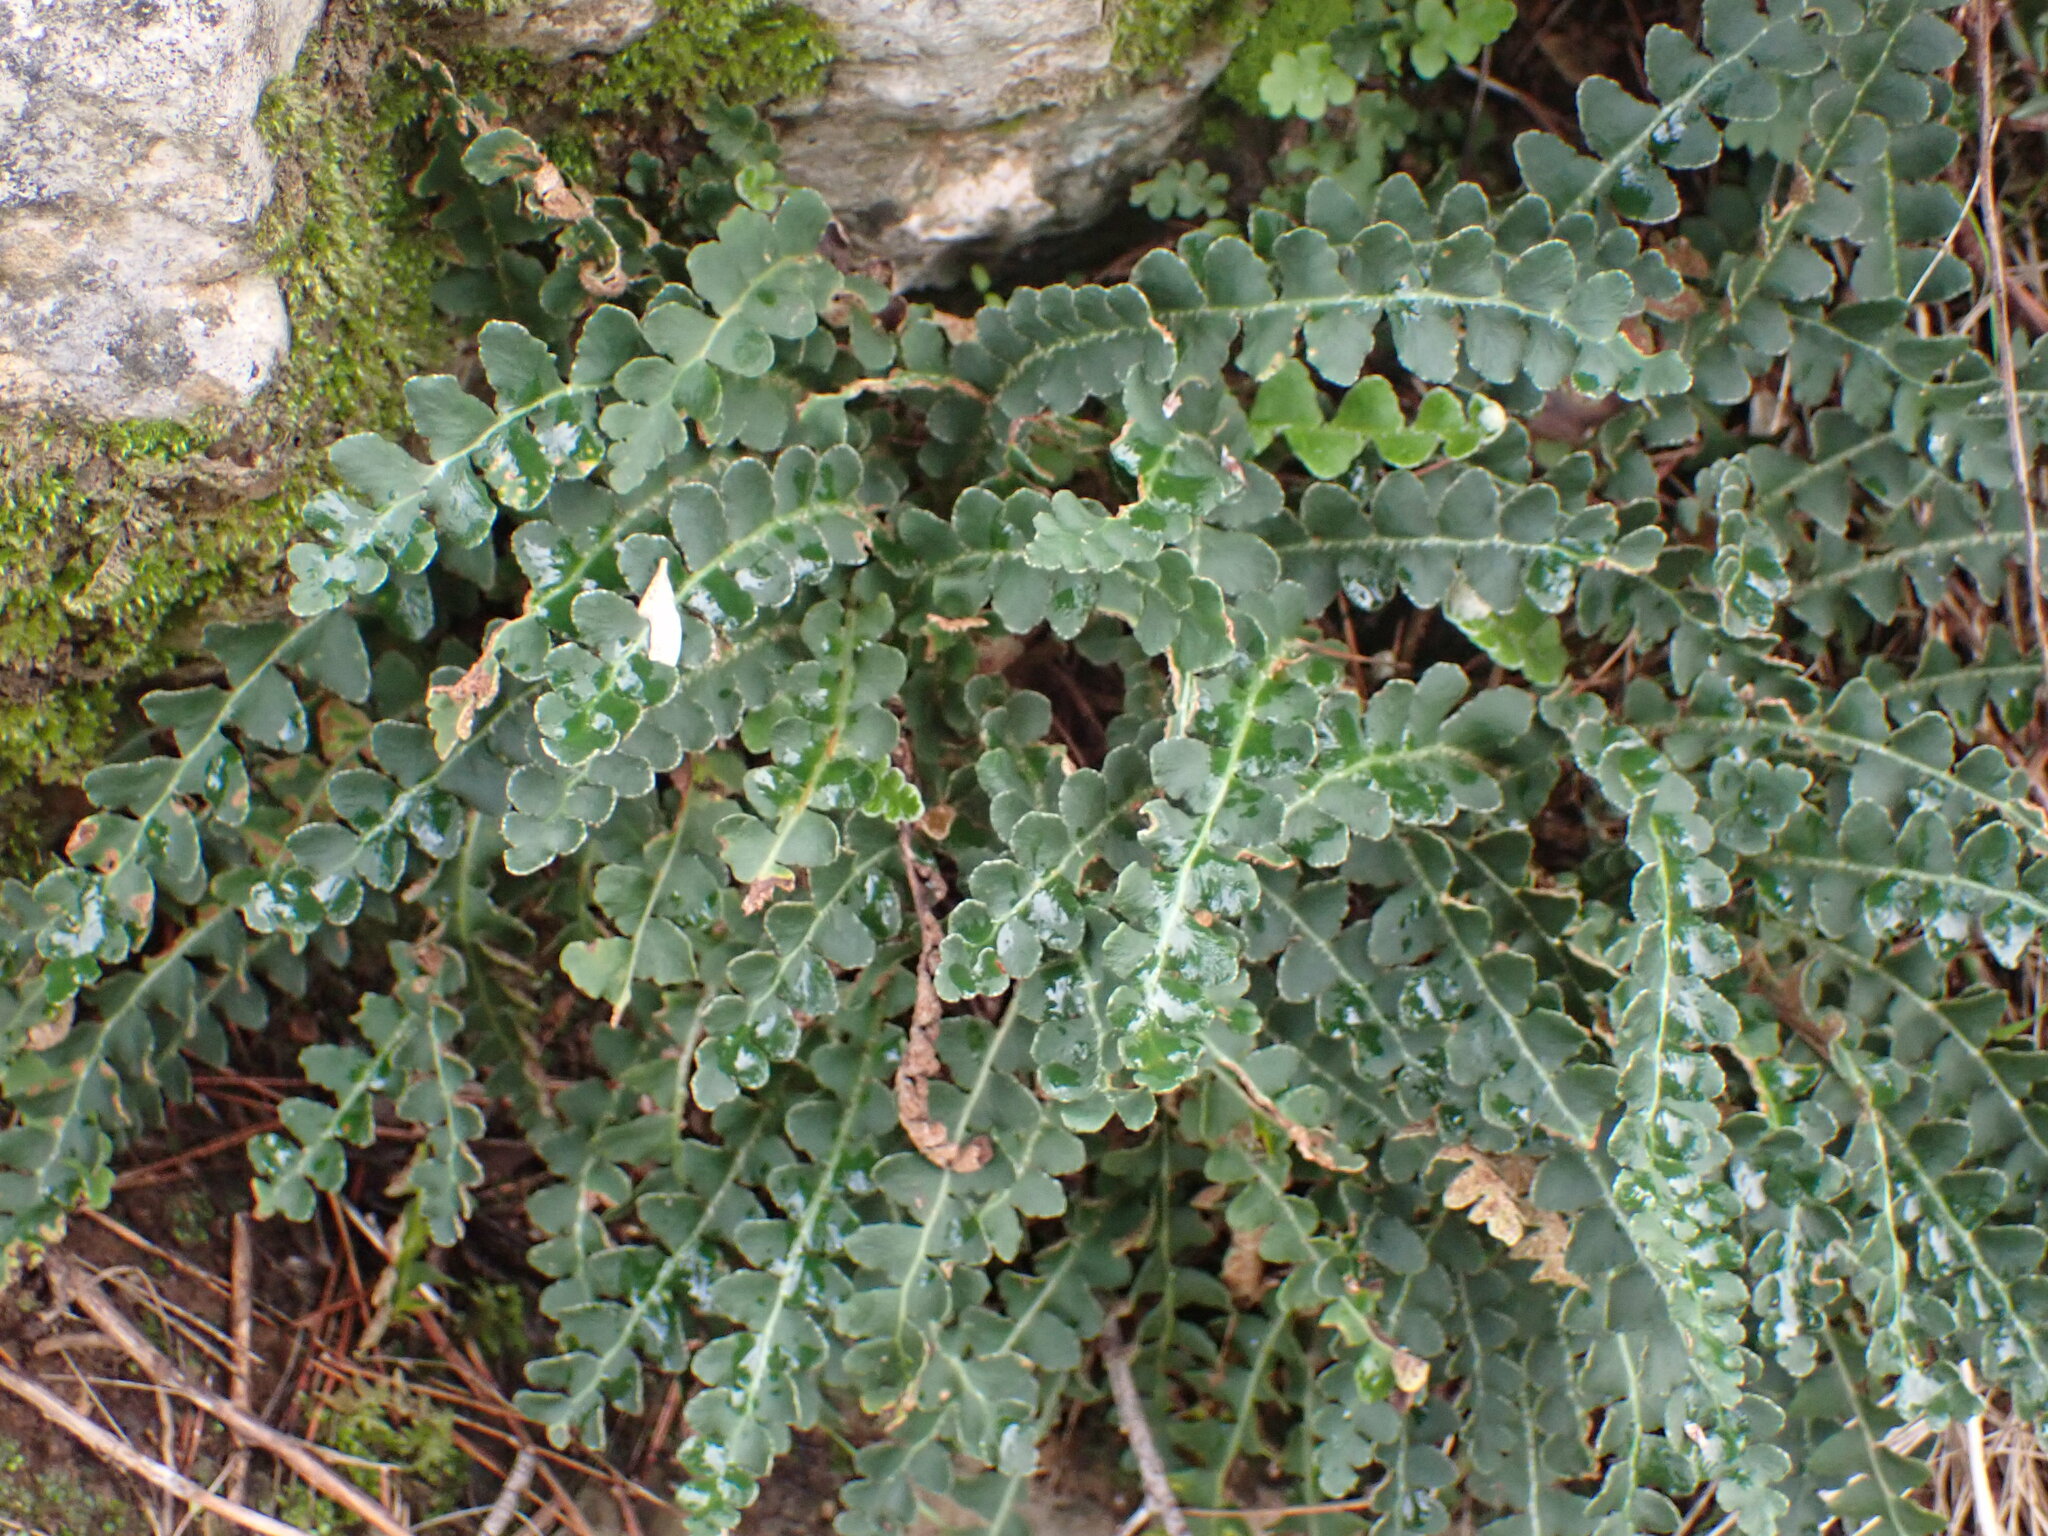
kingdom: Plantae
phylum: Tracheophyta
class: Polypodiopsida
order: Polypodiales
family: Aspleniaceae
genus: Asplenium
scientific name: Asplenium ceterach
